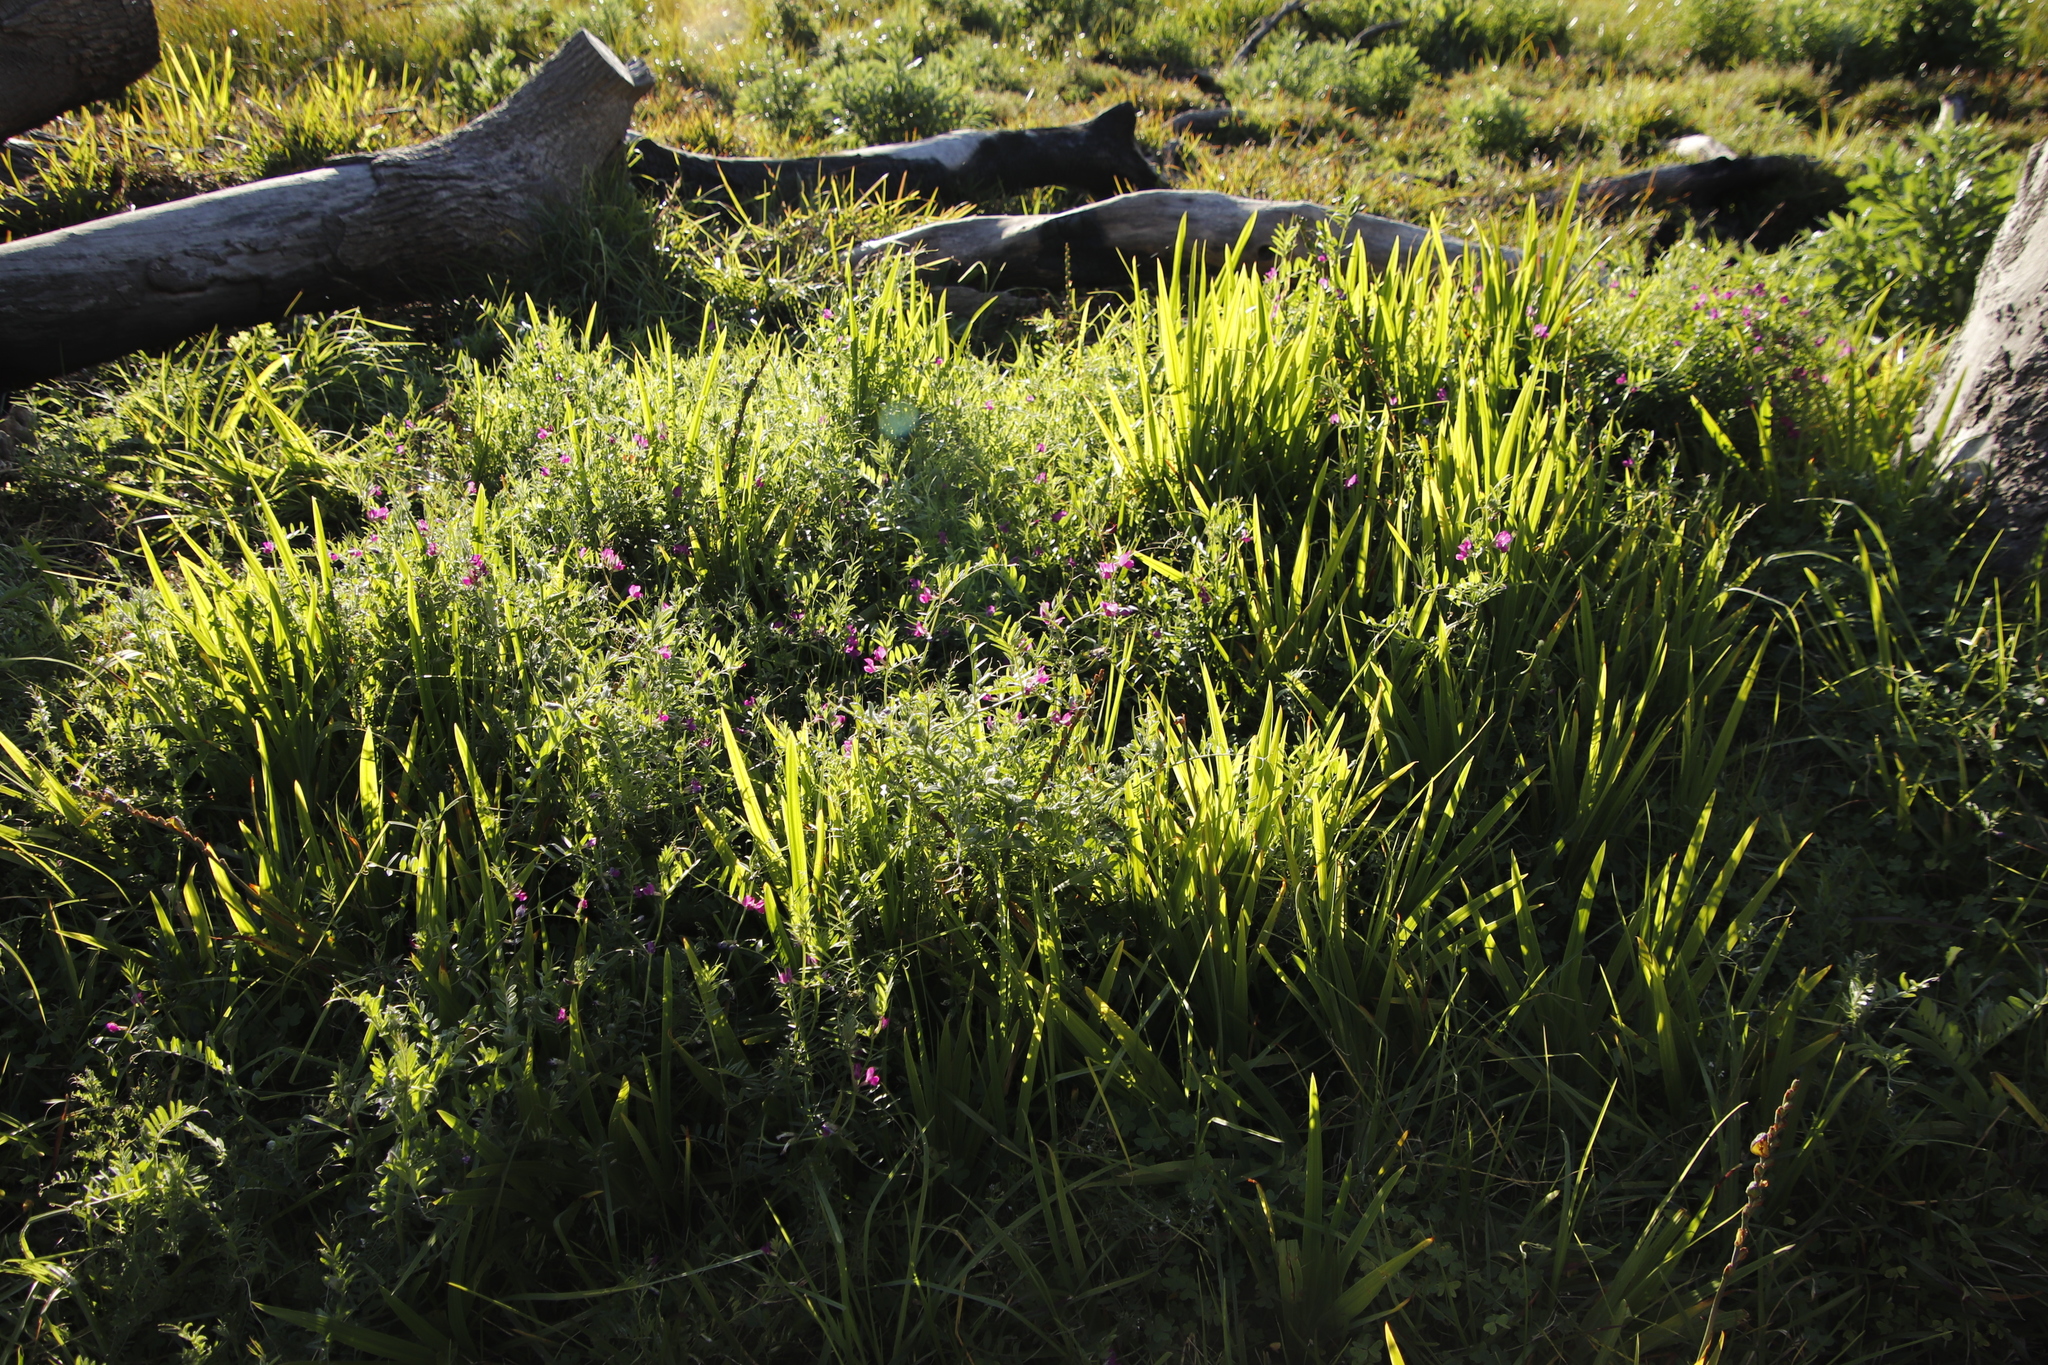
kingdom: Plantae
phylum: Tracheophyta
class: Magnoliopsida
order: Fabales
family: Fabaceae
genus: Vicia
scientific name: Vicia sativa
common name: Garden vetch
